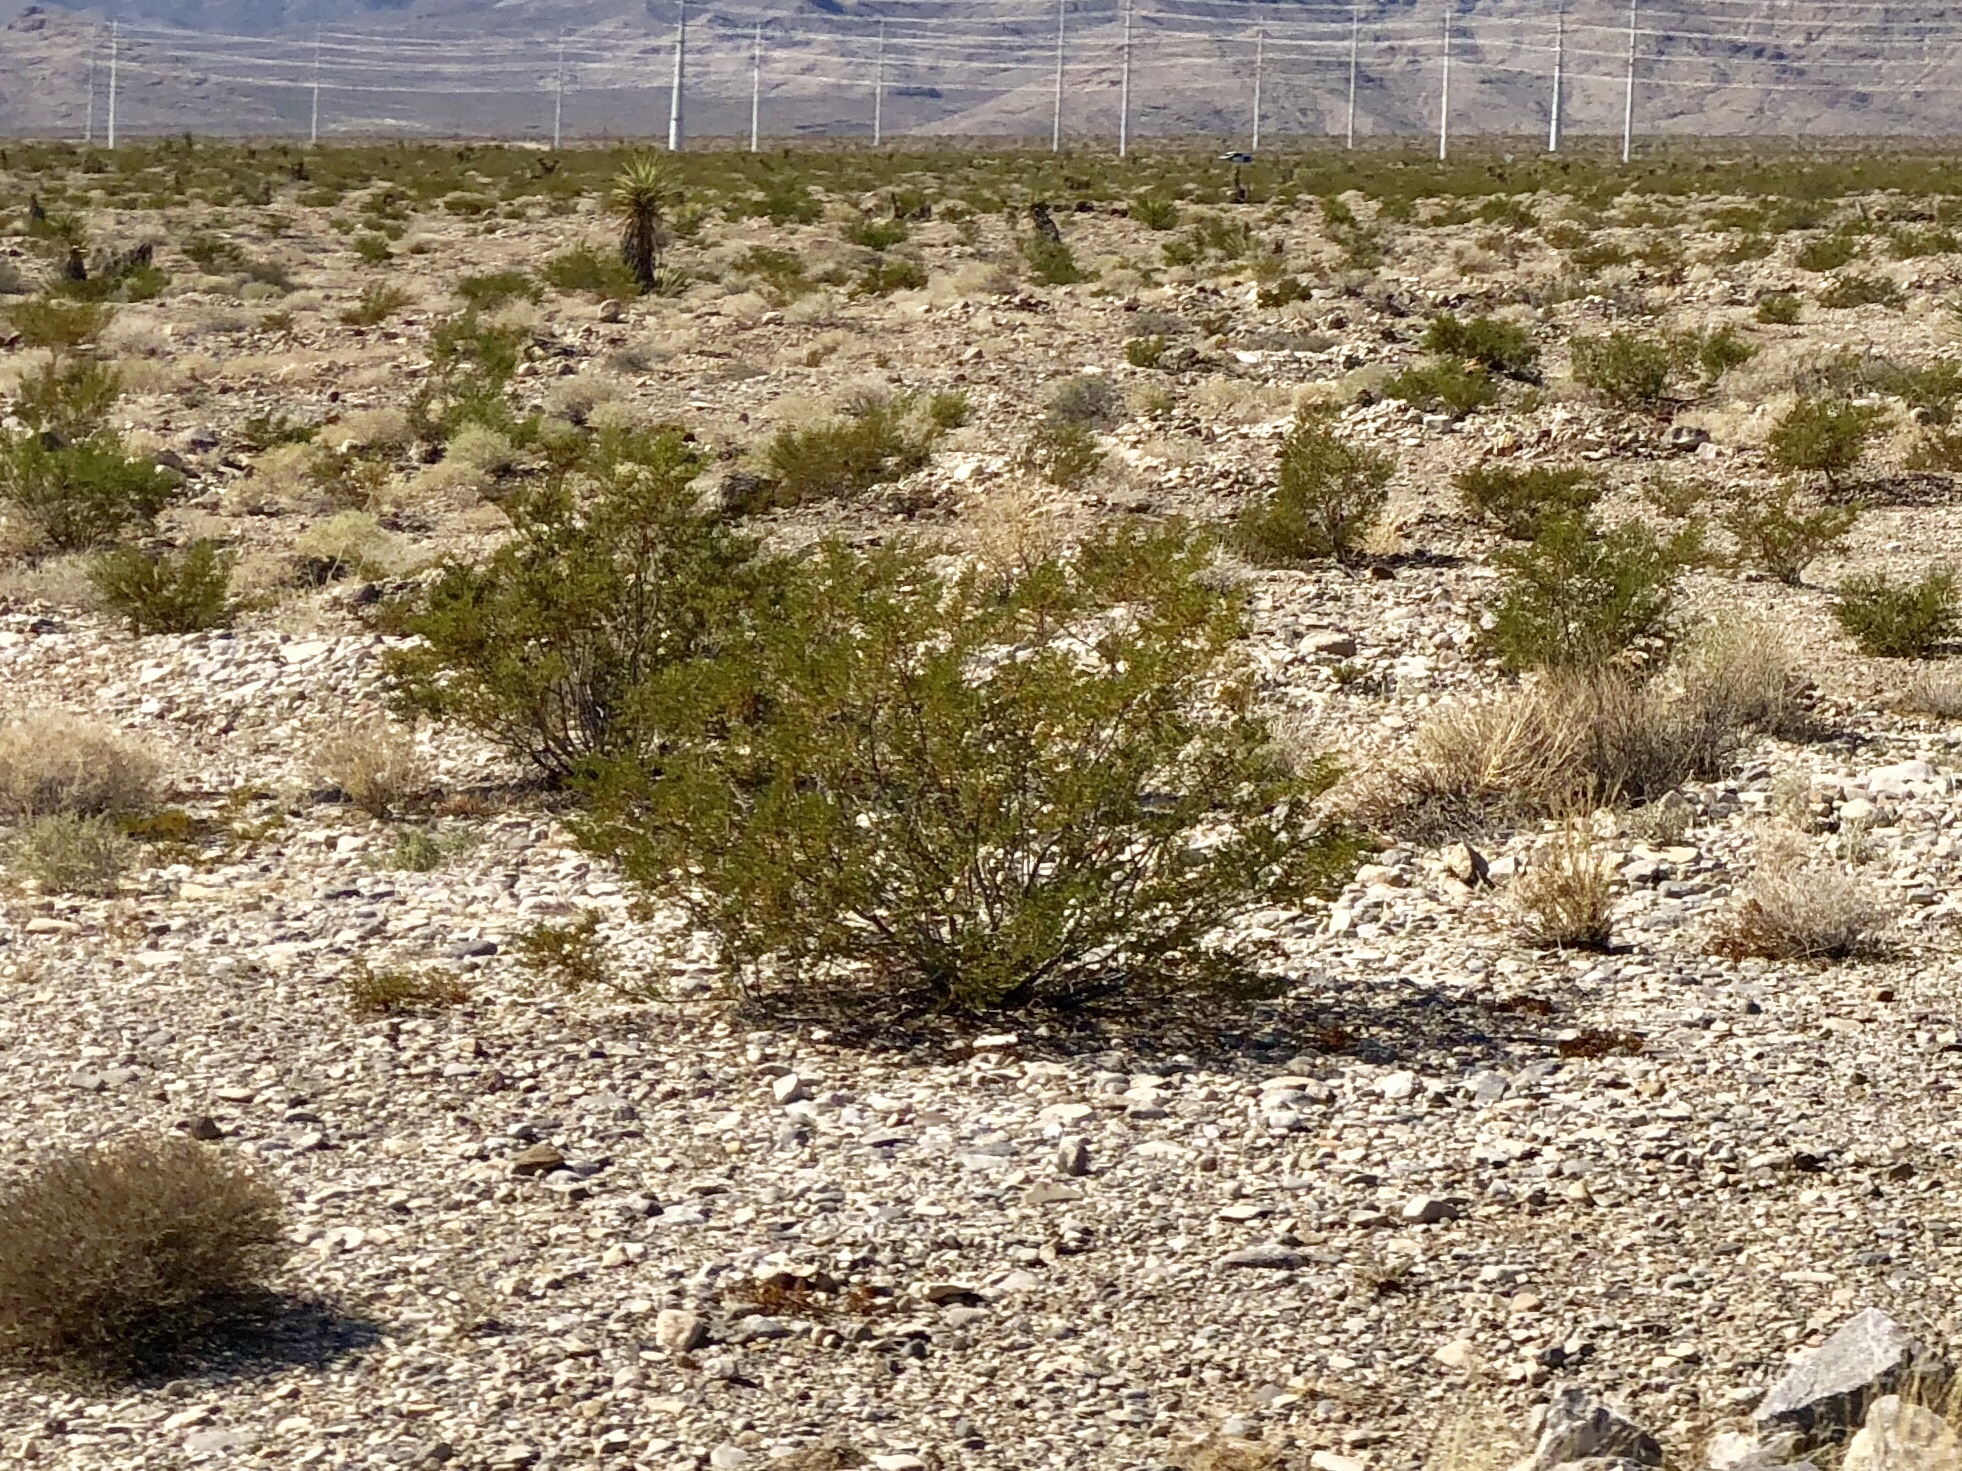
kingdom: Plantae
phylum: Tracheophyta
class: Magnoliopsida
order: Zygophyllales
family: Zygophyllaceae
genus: Larrea
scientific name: Larrea tridentata
